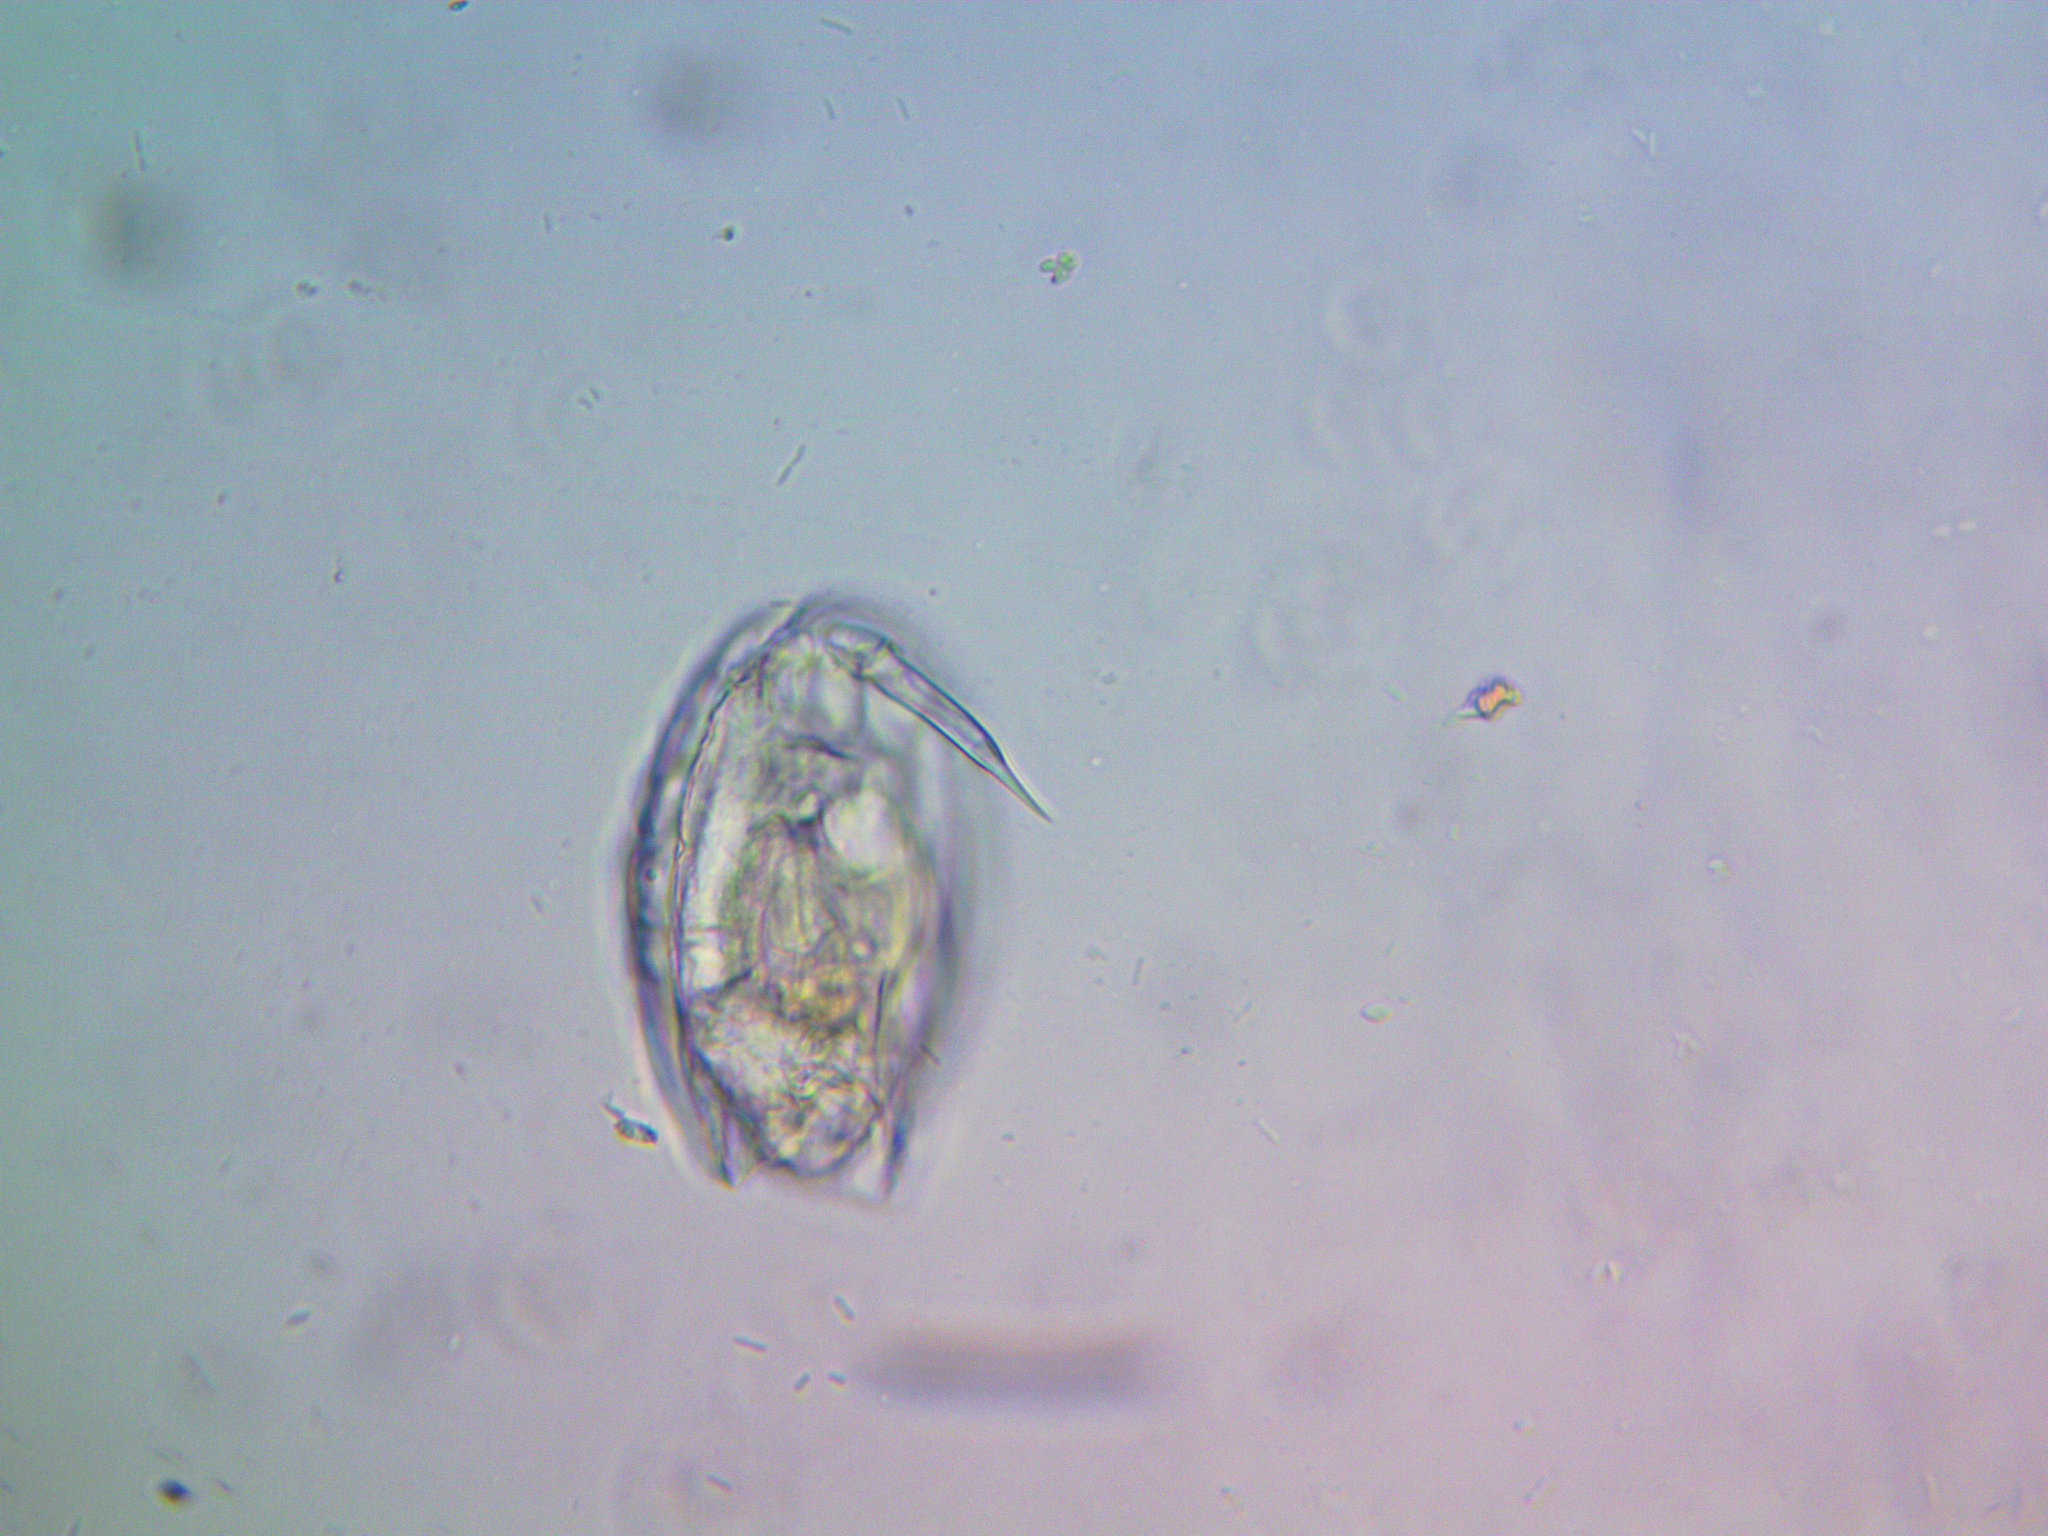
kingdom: Animalia
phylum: Rotifera
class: Eurotatoria
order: Ploima
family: Lecanidae
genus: Lecane
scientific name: Lecane hamata
